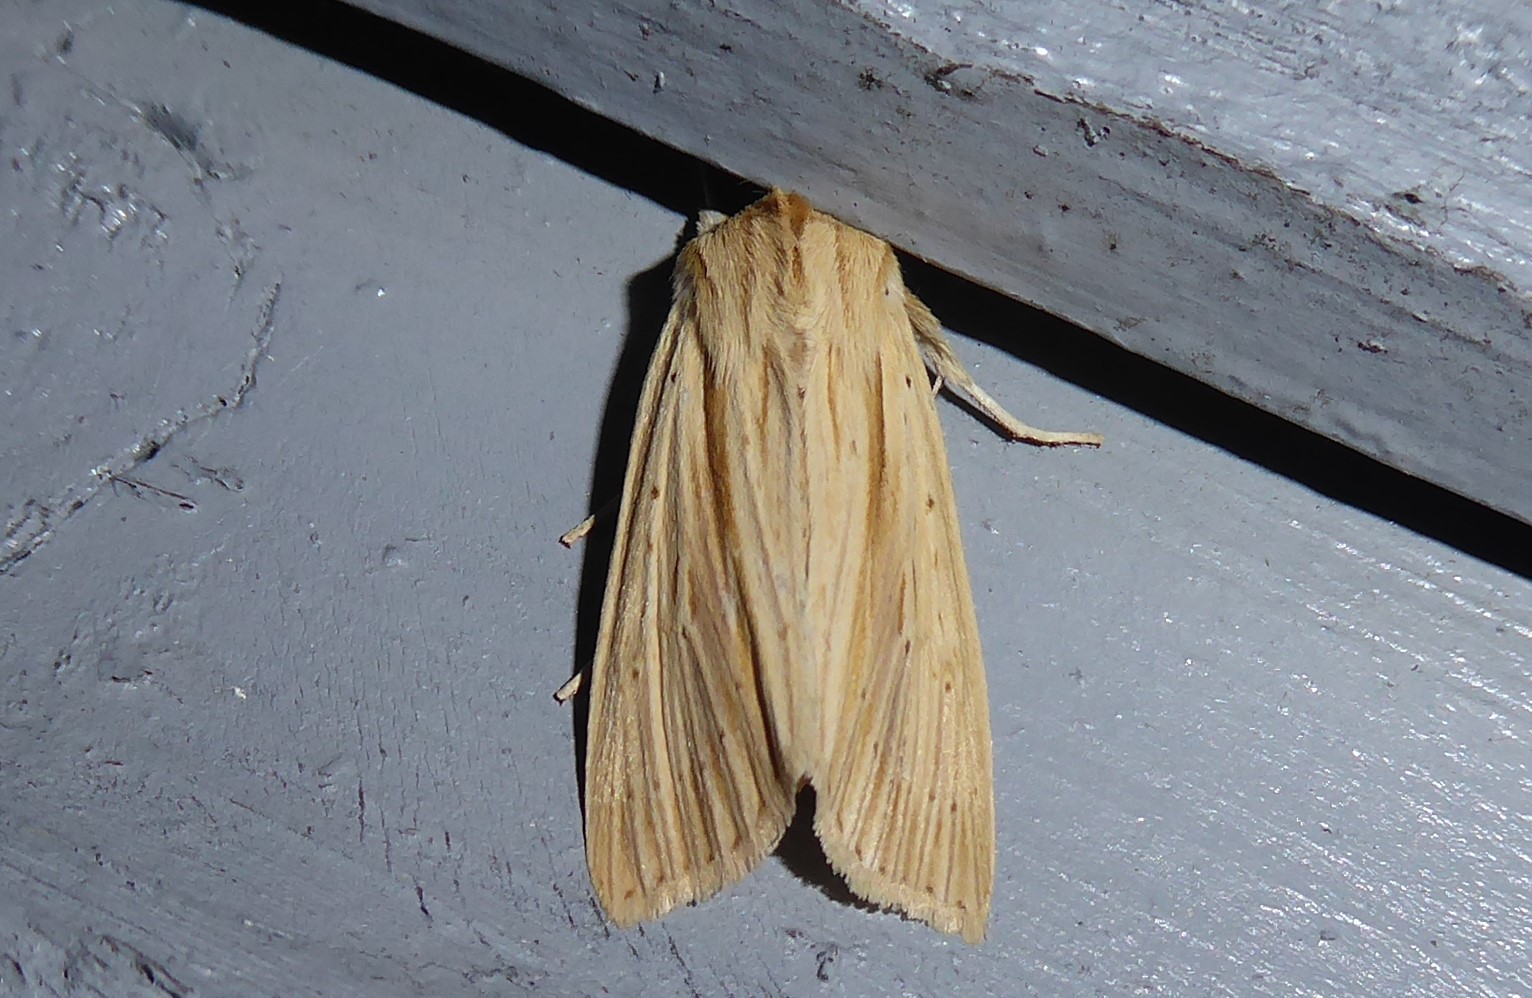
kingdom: Animalia
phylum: Arthropoda
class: Insecta
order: Lepidoptera
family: Noctuidae
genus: Ichneutica
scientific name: Ichneutica semivittata
